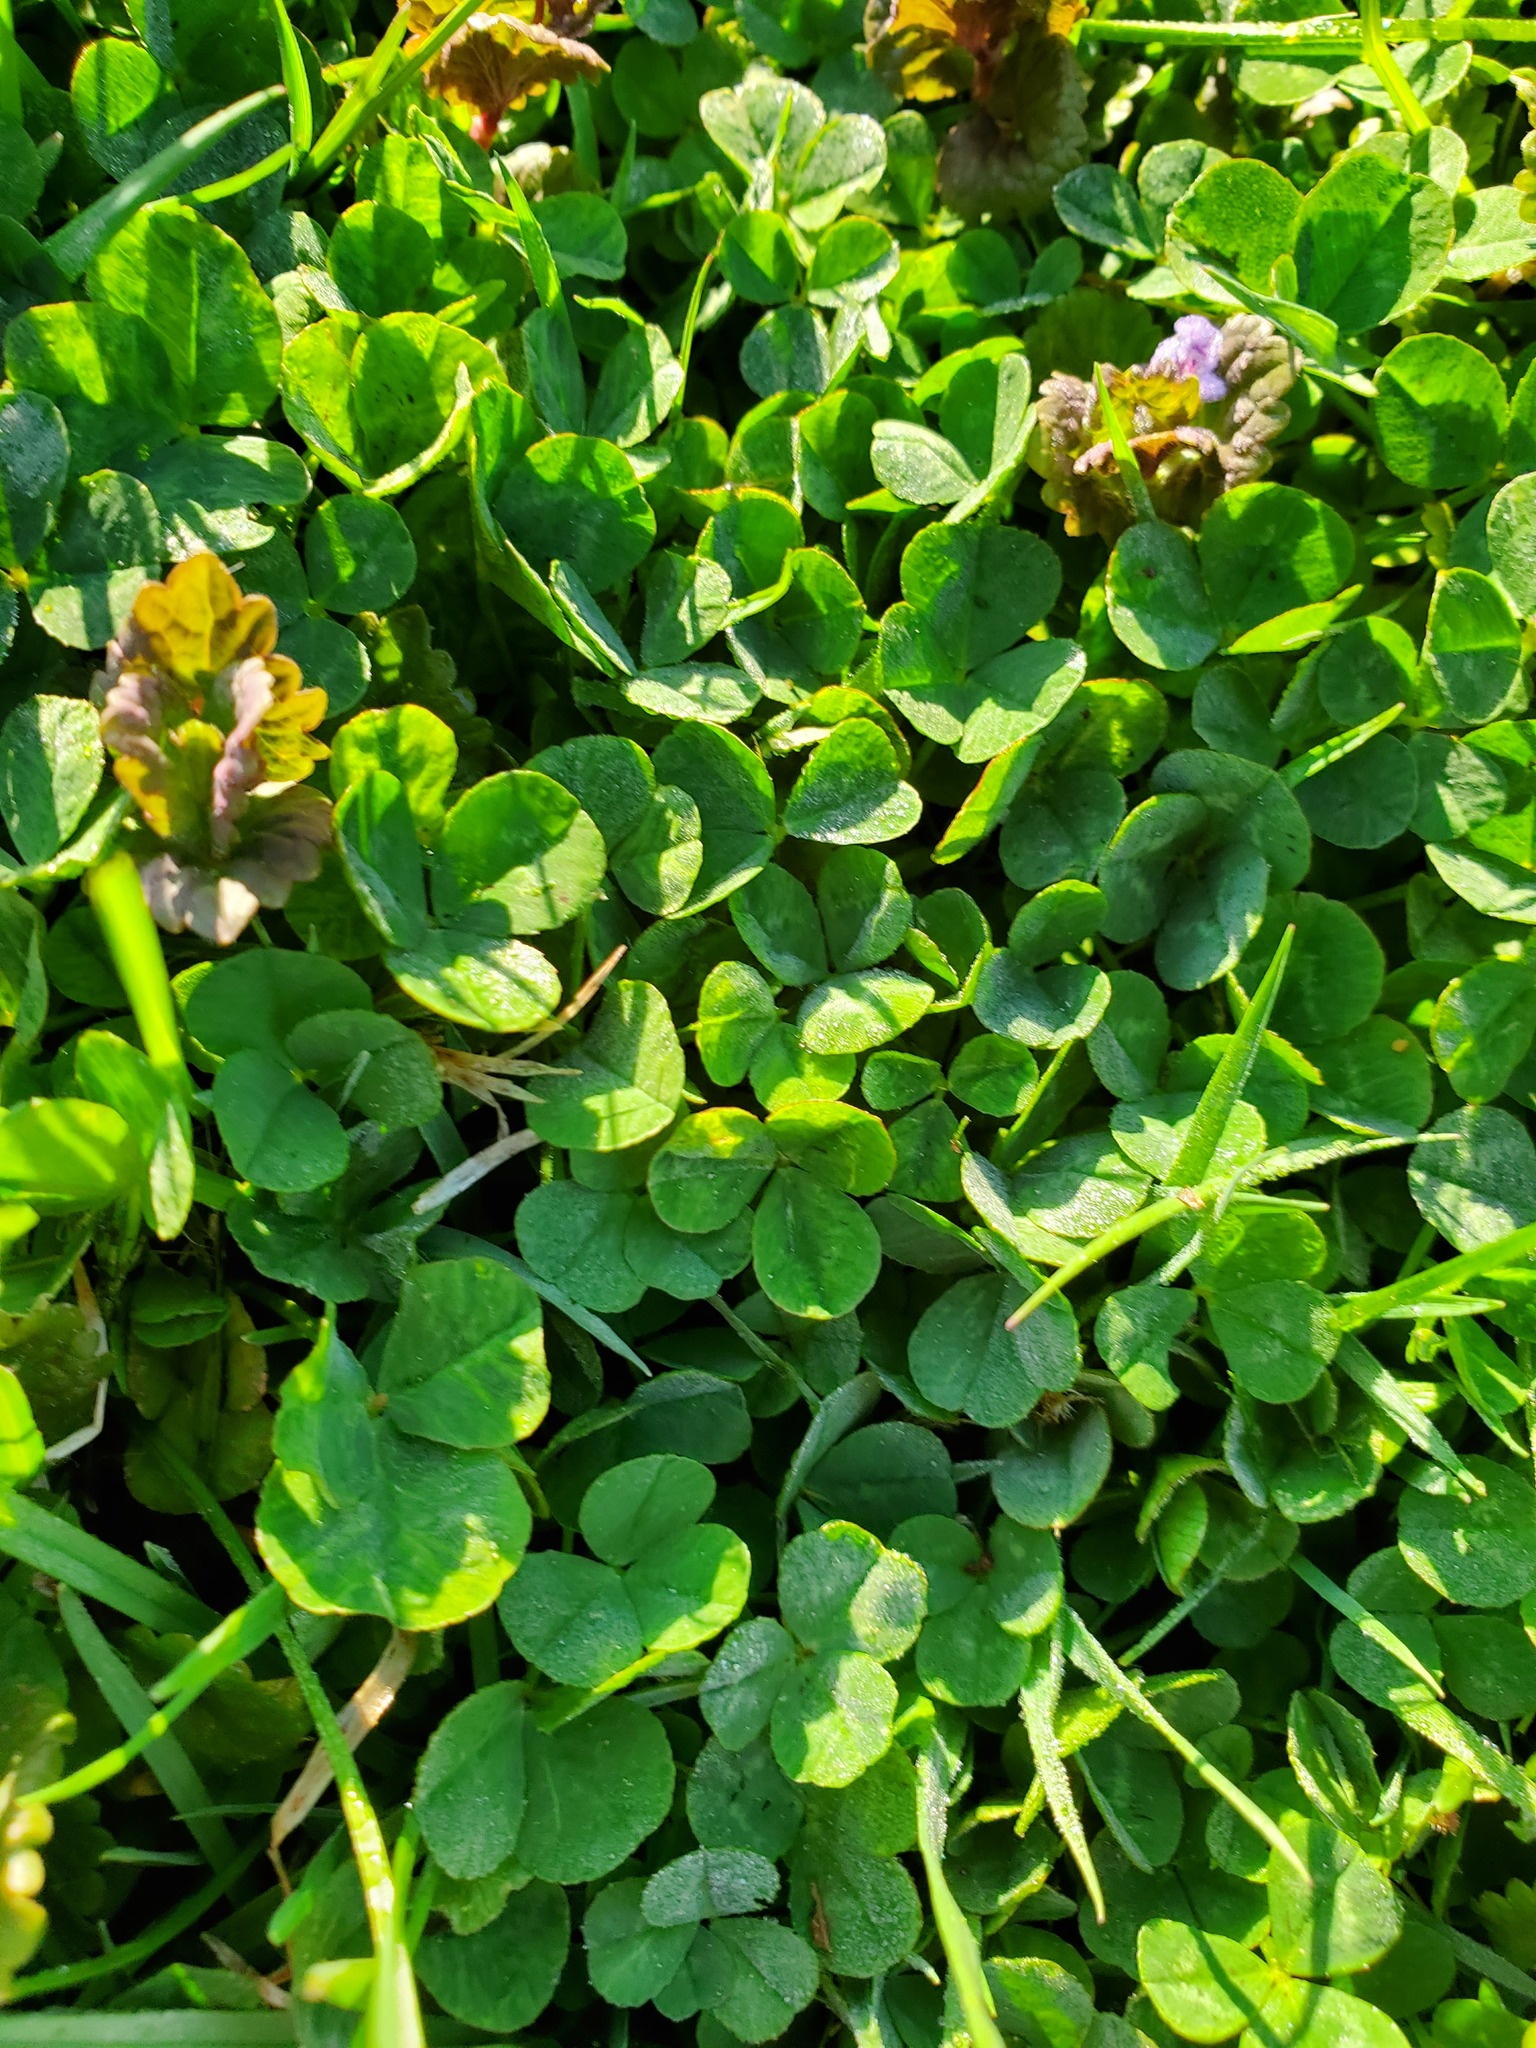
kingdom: Plantae
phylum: Tracheophyta
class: Magnoliopsida
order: Fabales
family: Fabaceae
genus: Trifolium
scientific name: Trifolium repens
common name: White clover
